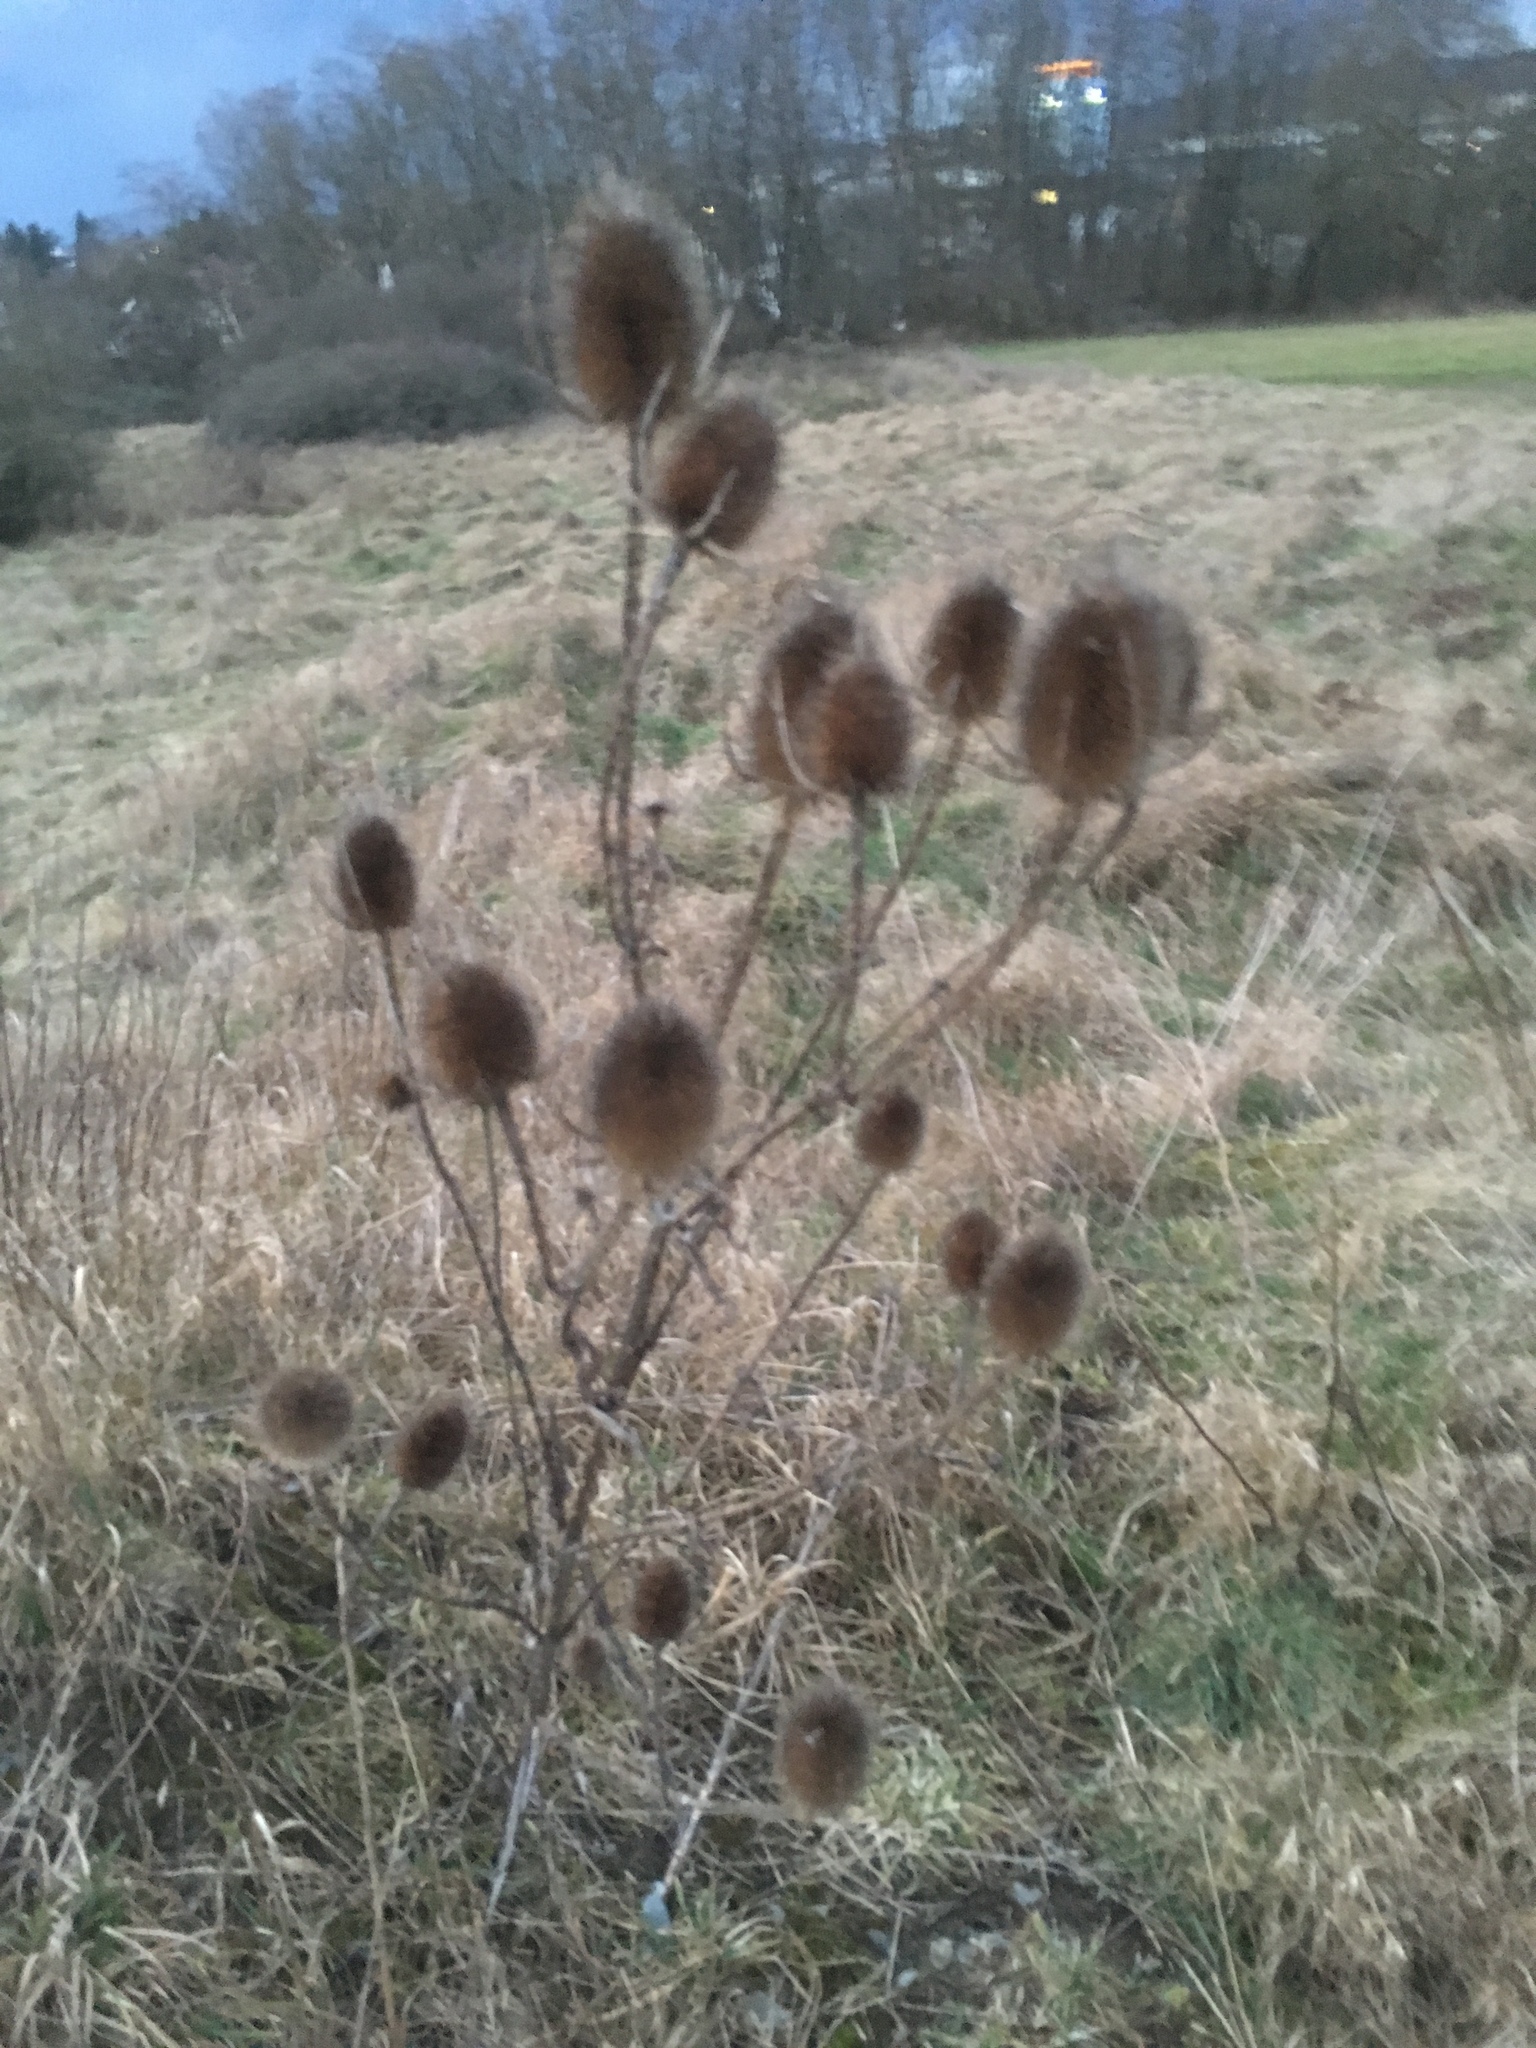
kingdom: Plantae
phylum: Tracheophyta
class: Magnoliopsida
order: Dipsacales
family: Caprifoliaceae
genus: Dipsacus
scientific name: Dipsacus fullonum
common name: Teasel
